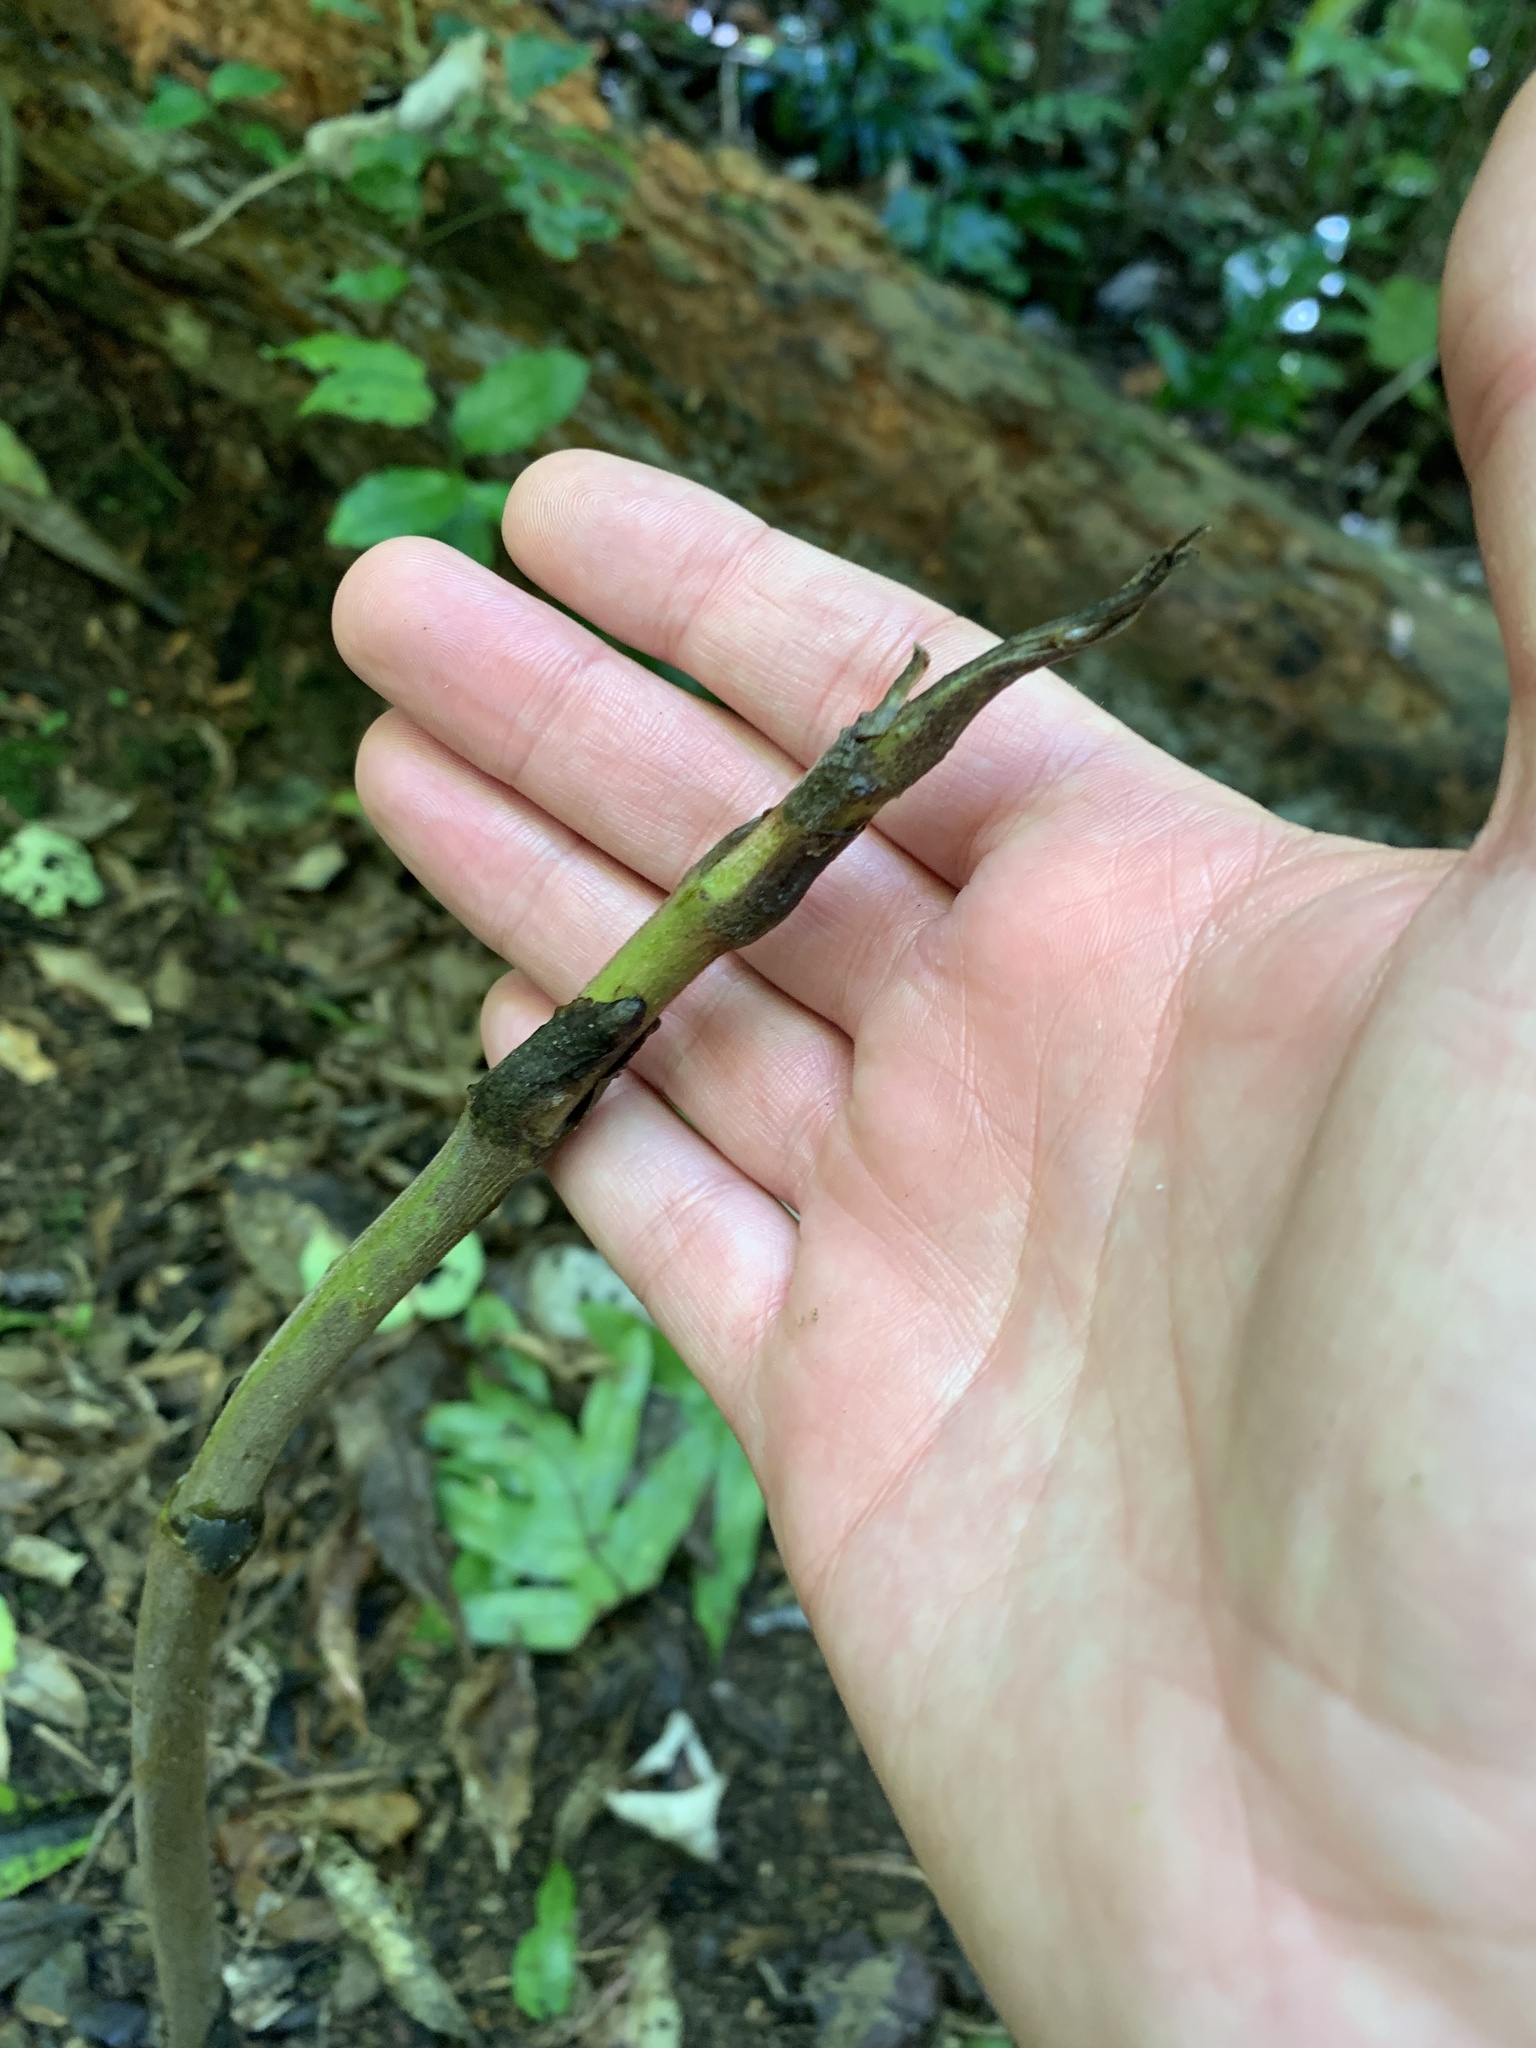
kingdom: Plantae
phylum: Tracheophyta
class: Liliopsida
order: Liliales
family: Ripogonaceae
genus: Ripogonum
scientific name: Ripogonum scandens
